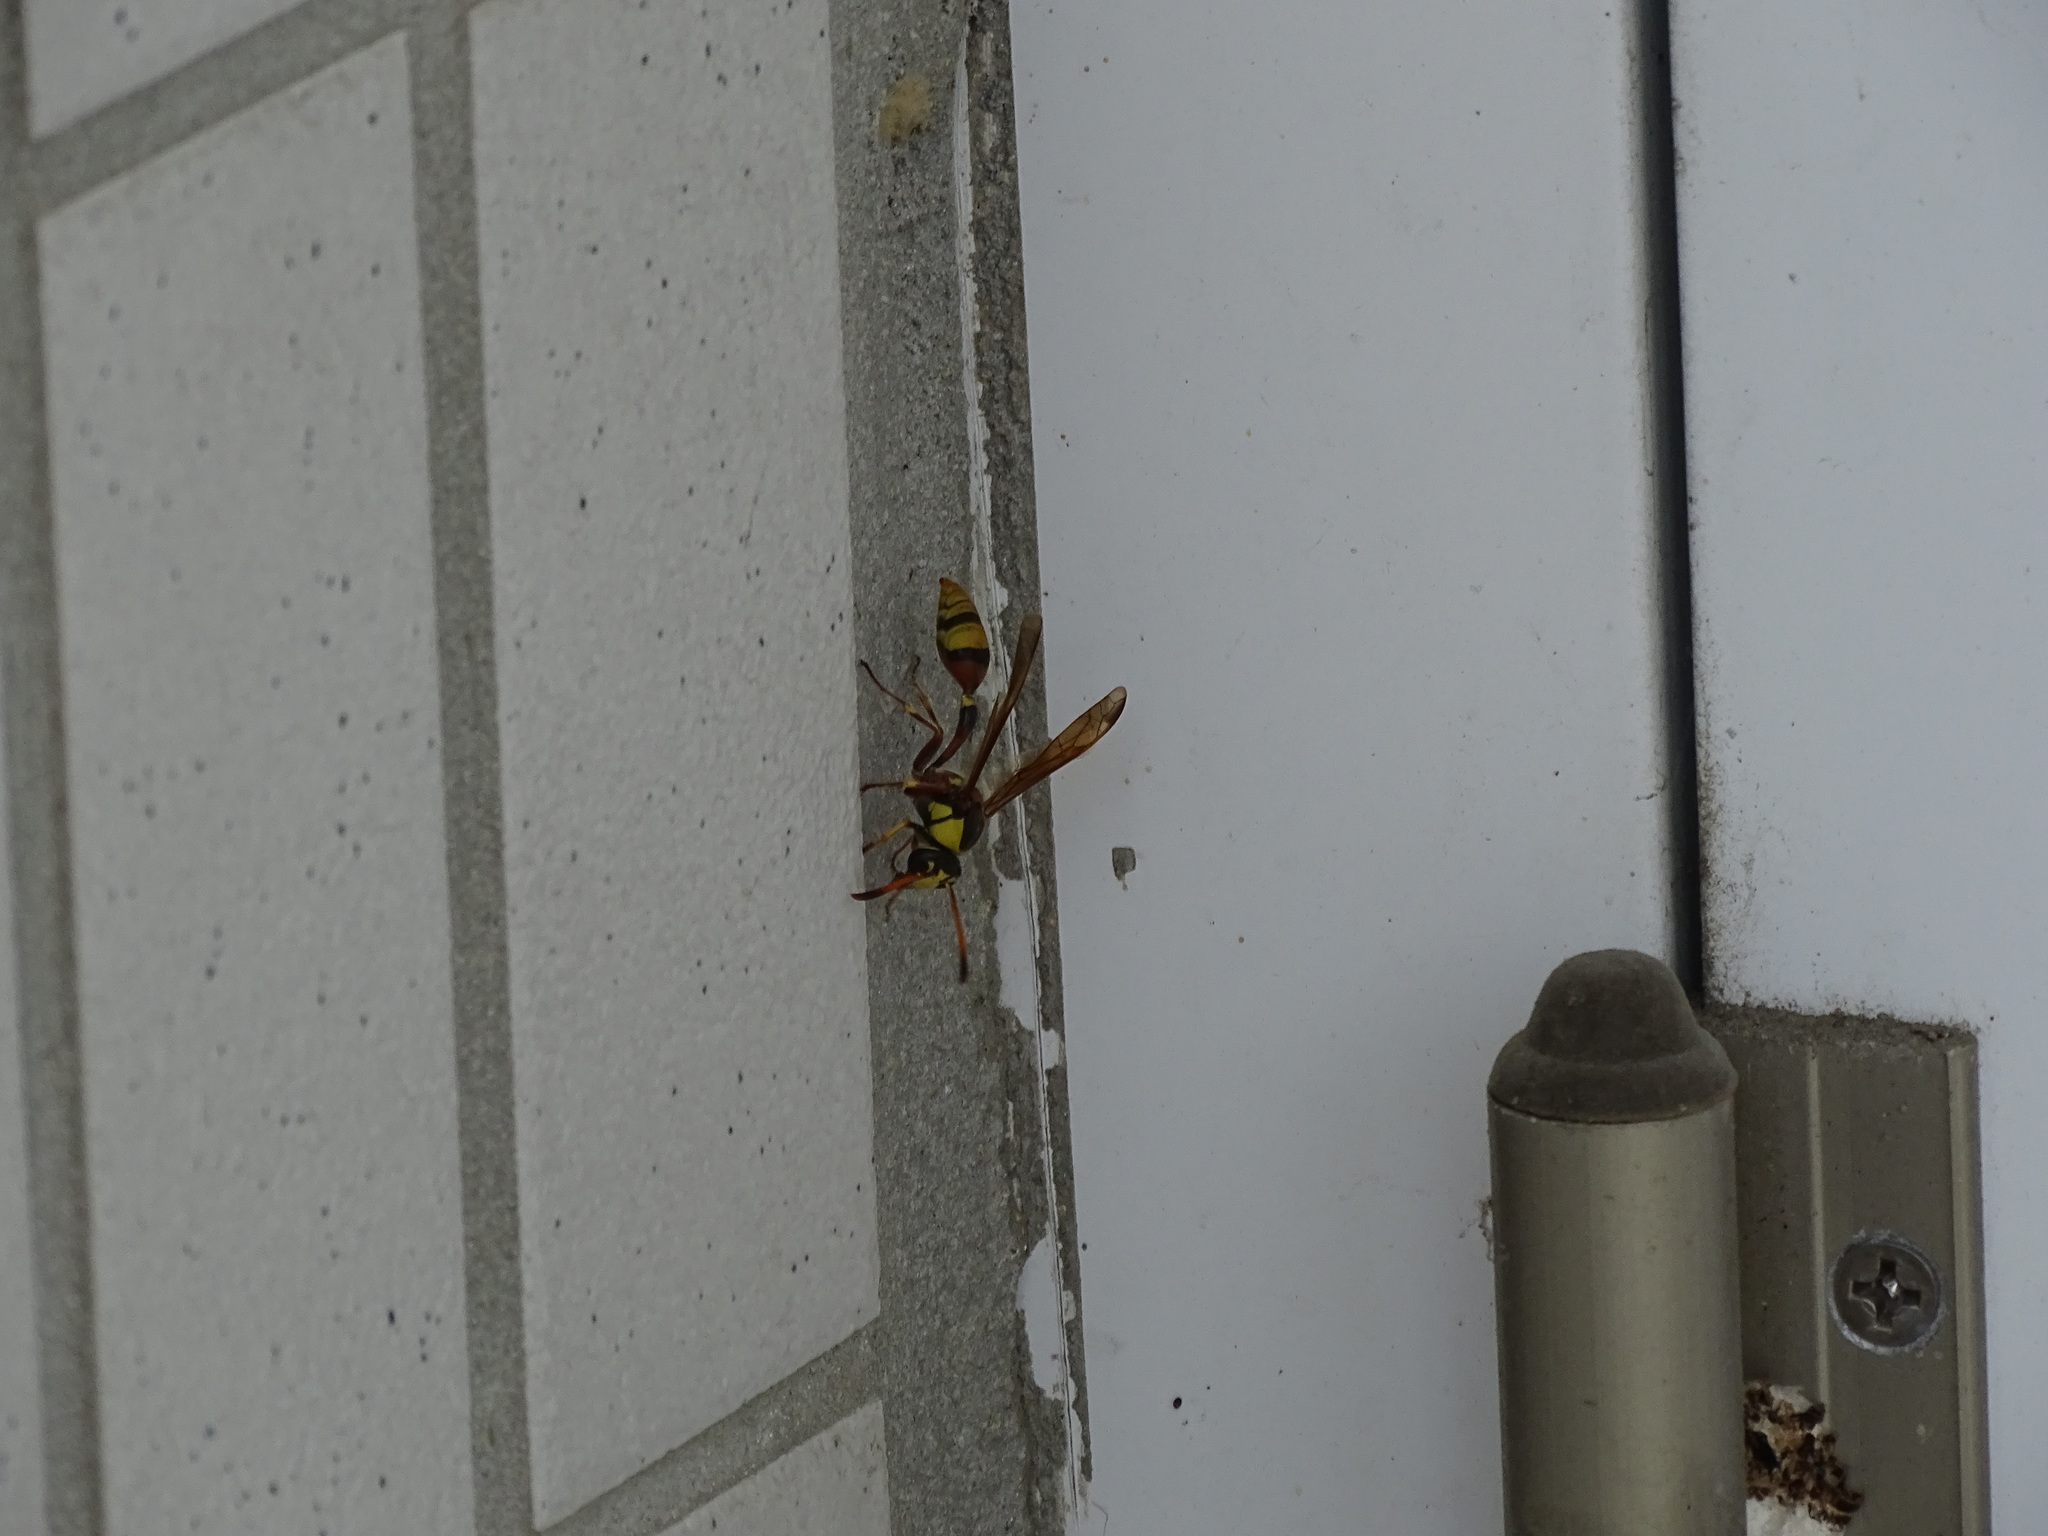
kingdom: Animalia
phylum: Arthropoda
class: Insecta
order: Hymenoptera
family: Eumenidae
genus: Delta
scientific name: Delta esuriens
